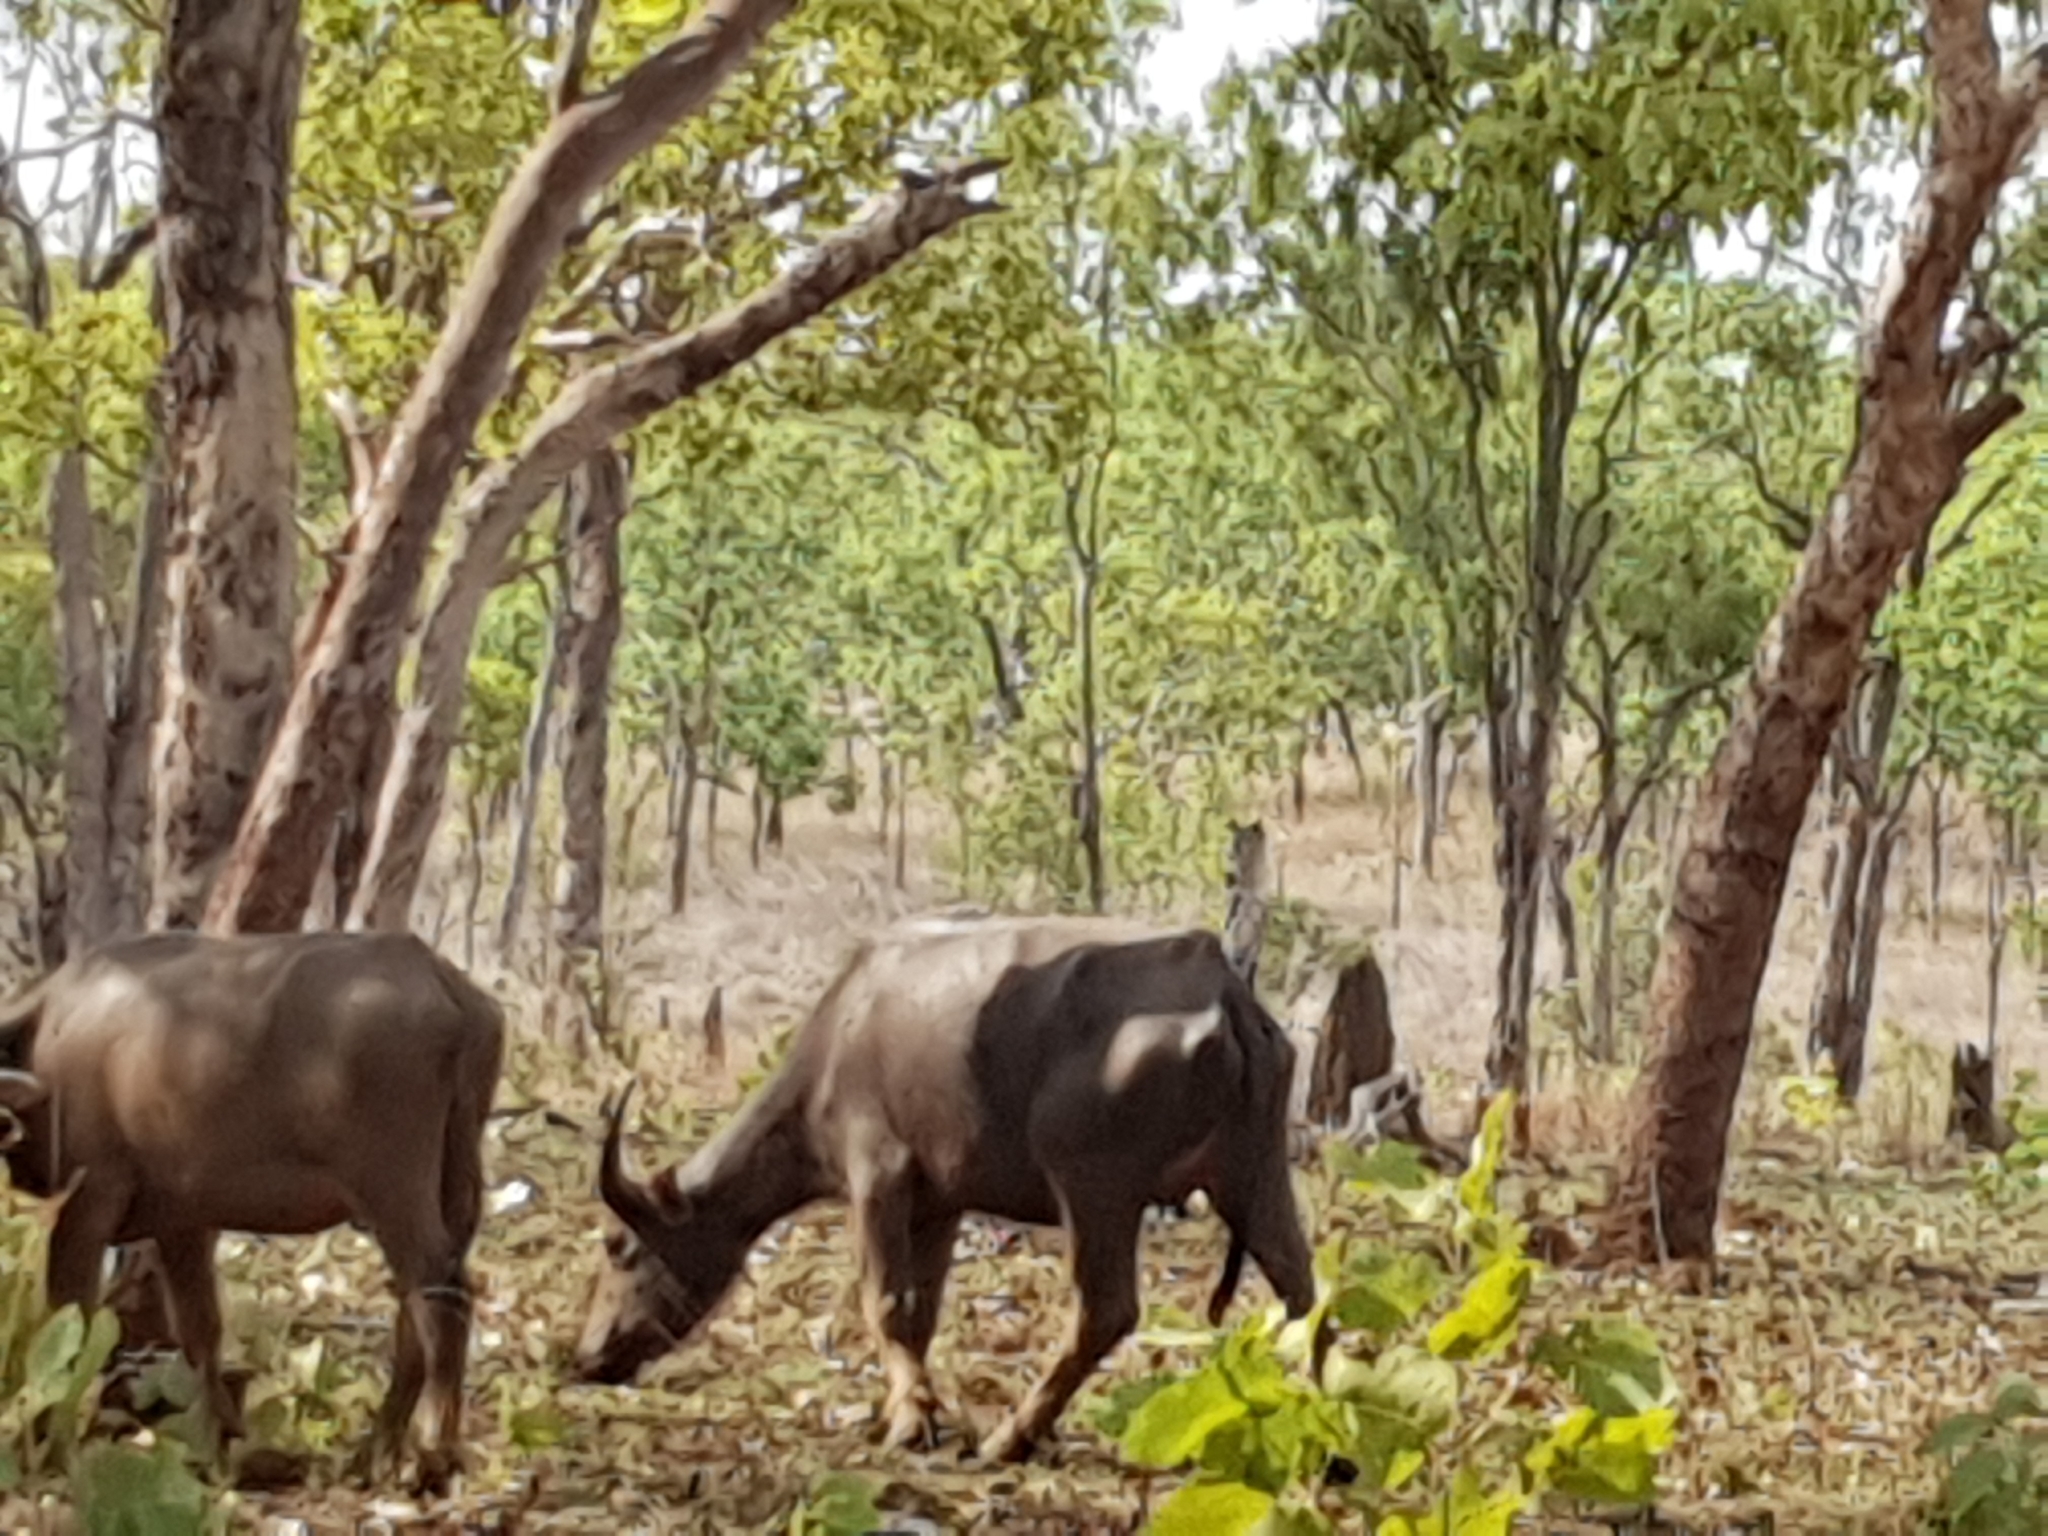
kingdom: Animalia
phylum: Chordata
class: Mammalia
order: Artiodactyla
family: Bovidae
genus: Bubalus
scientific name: Bubalus bubalis
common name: Water buffalo
